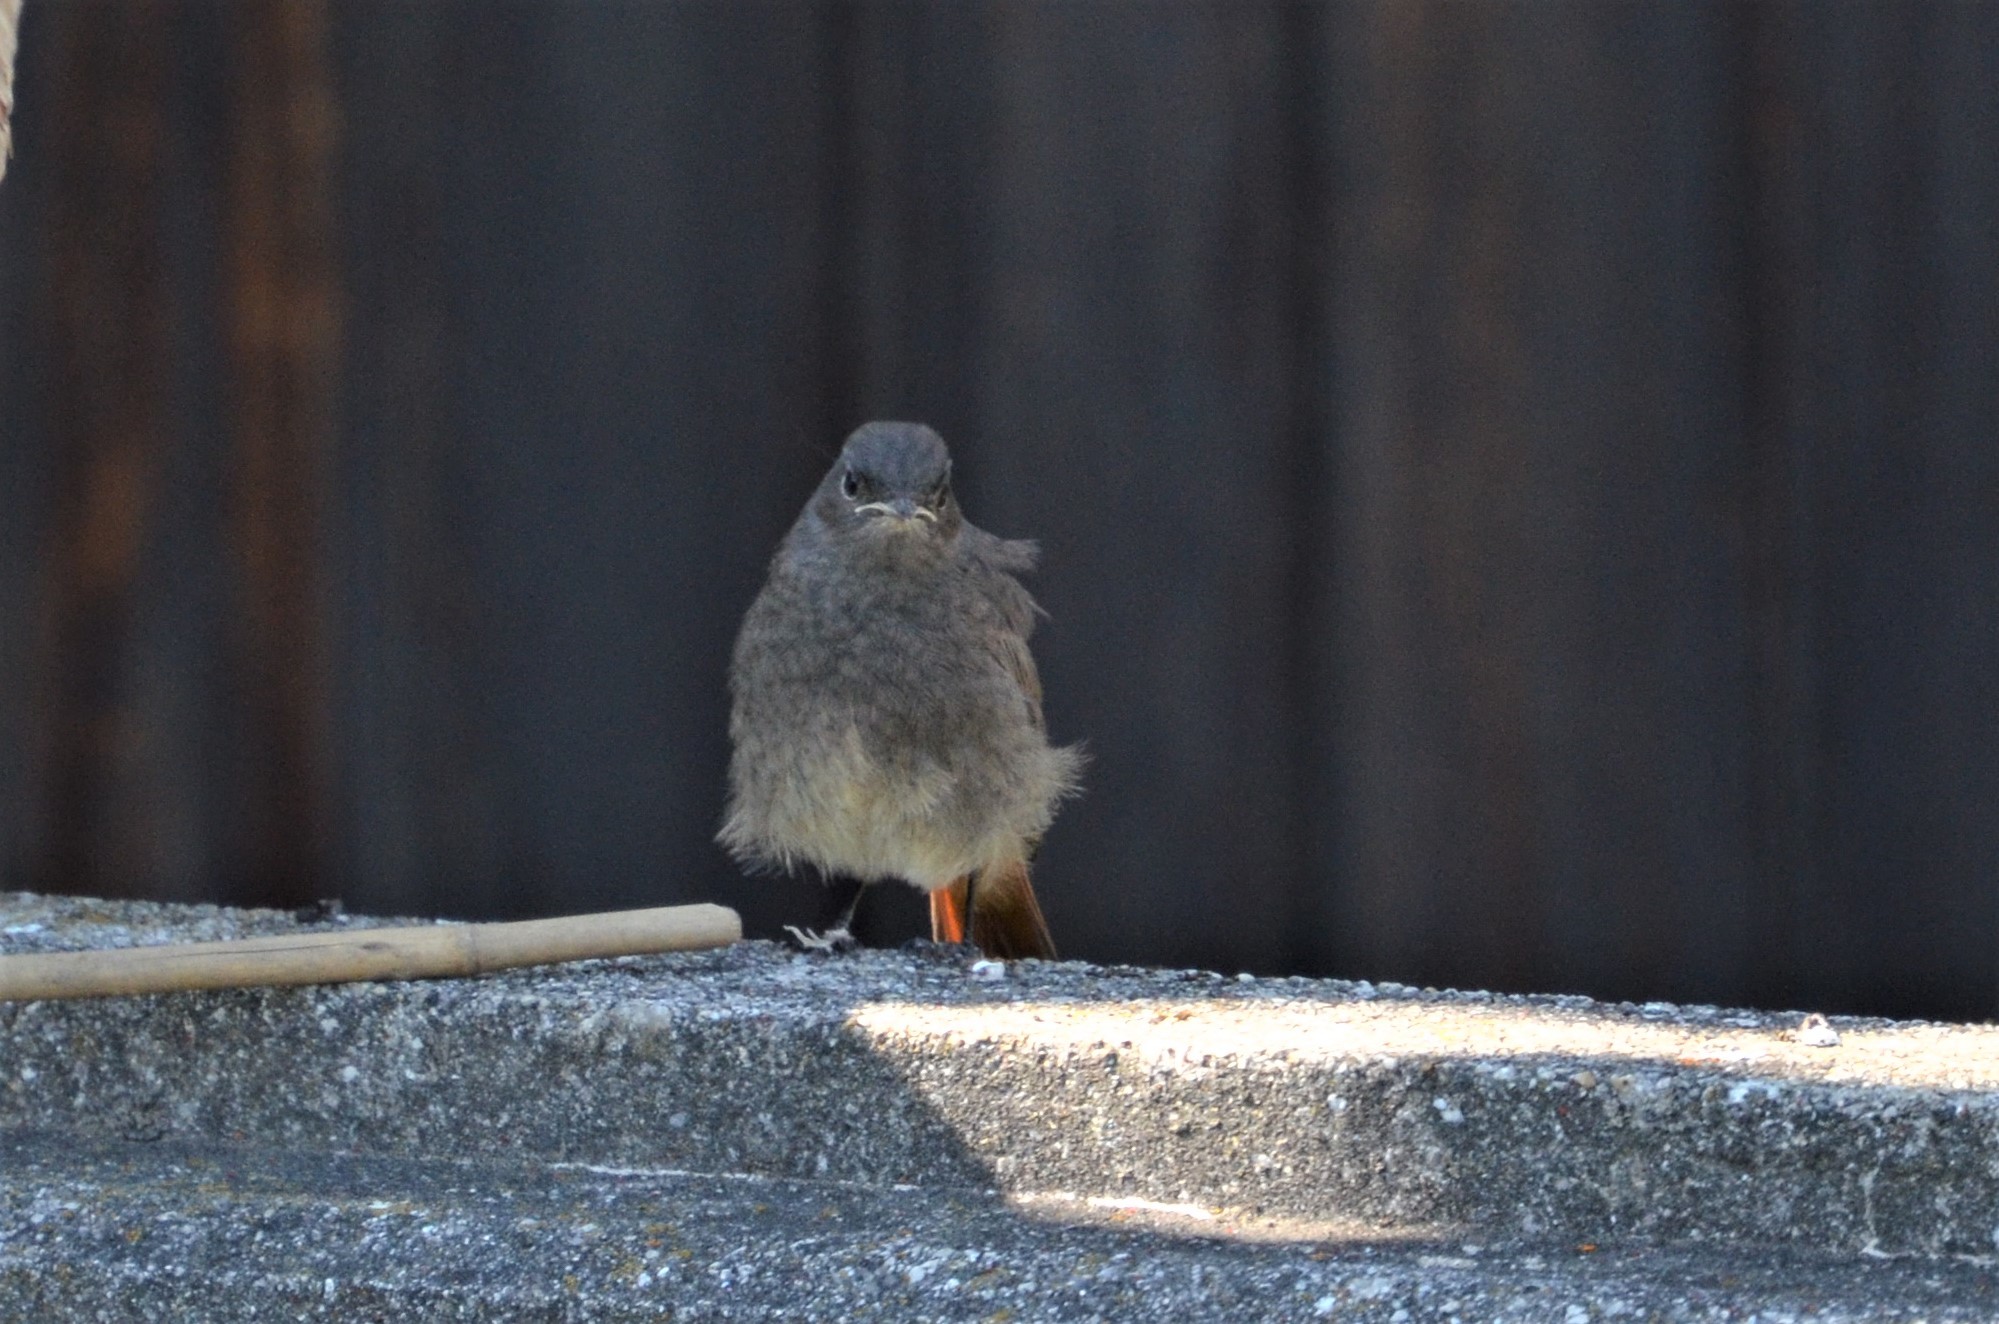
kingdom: Animalia
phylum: Chordata
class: Aves
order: Passeriformes
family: Muscicapidae
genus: Phoenicurus
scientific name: Phoenicurus ochruros
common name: Black redstart
